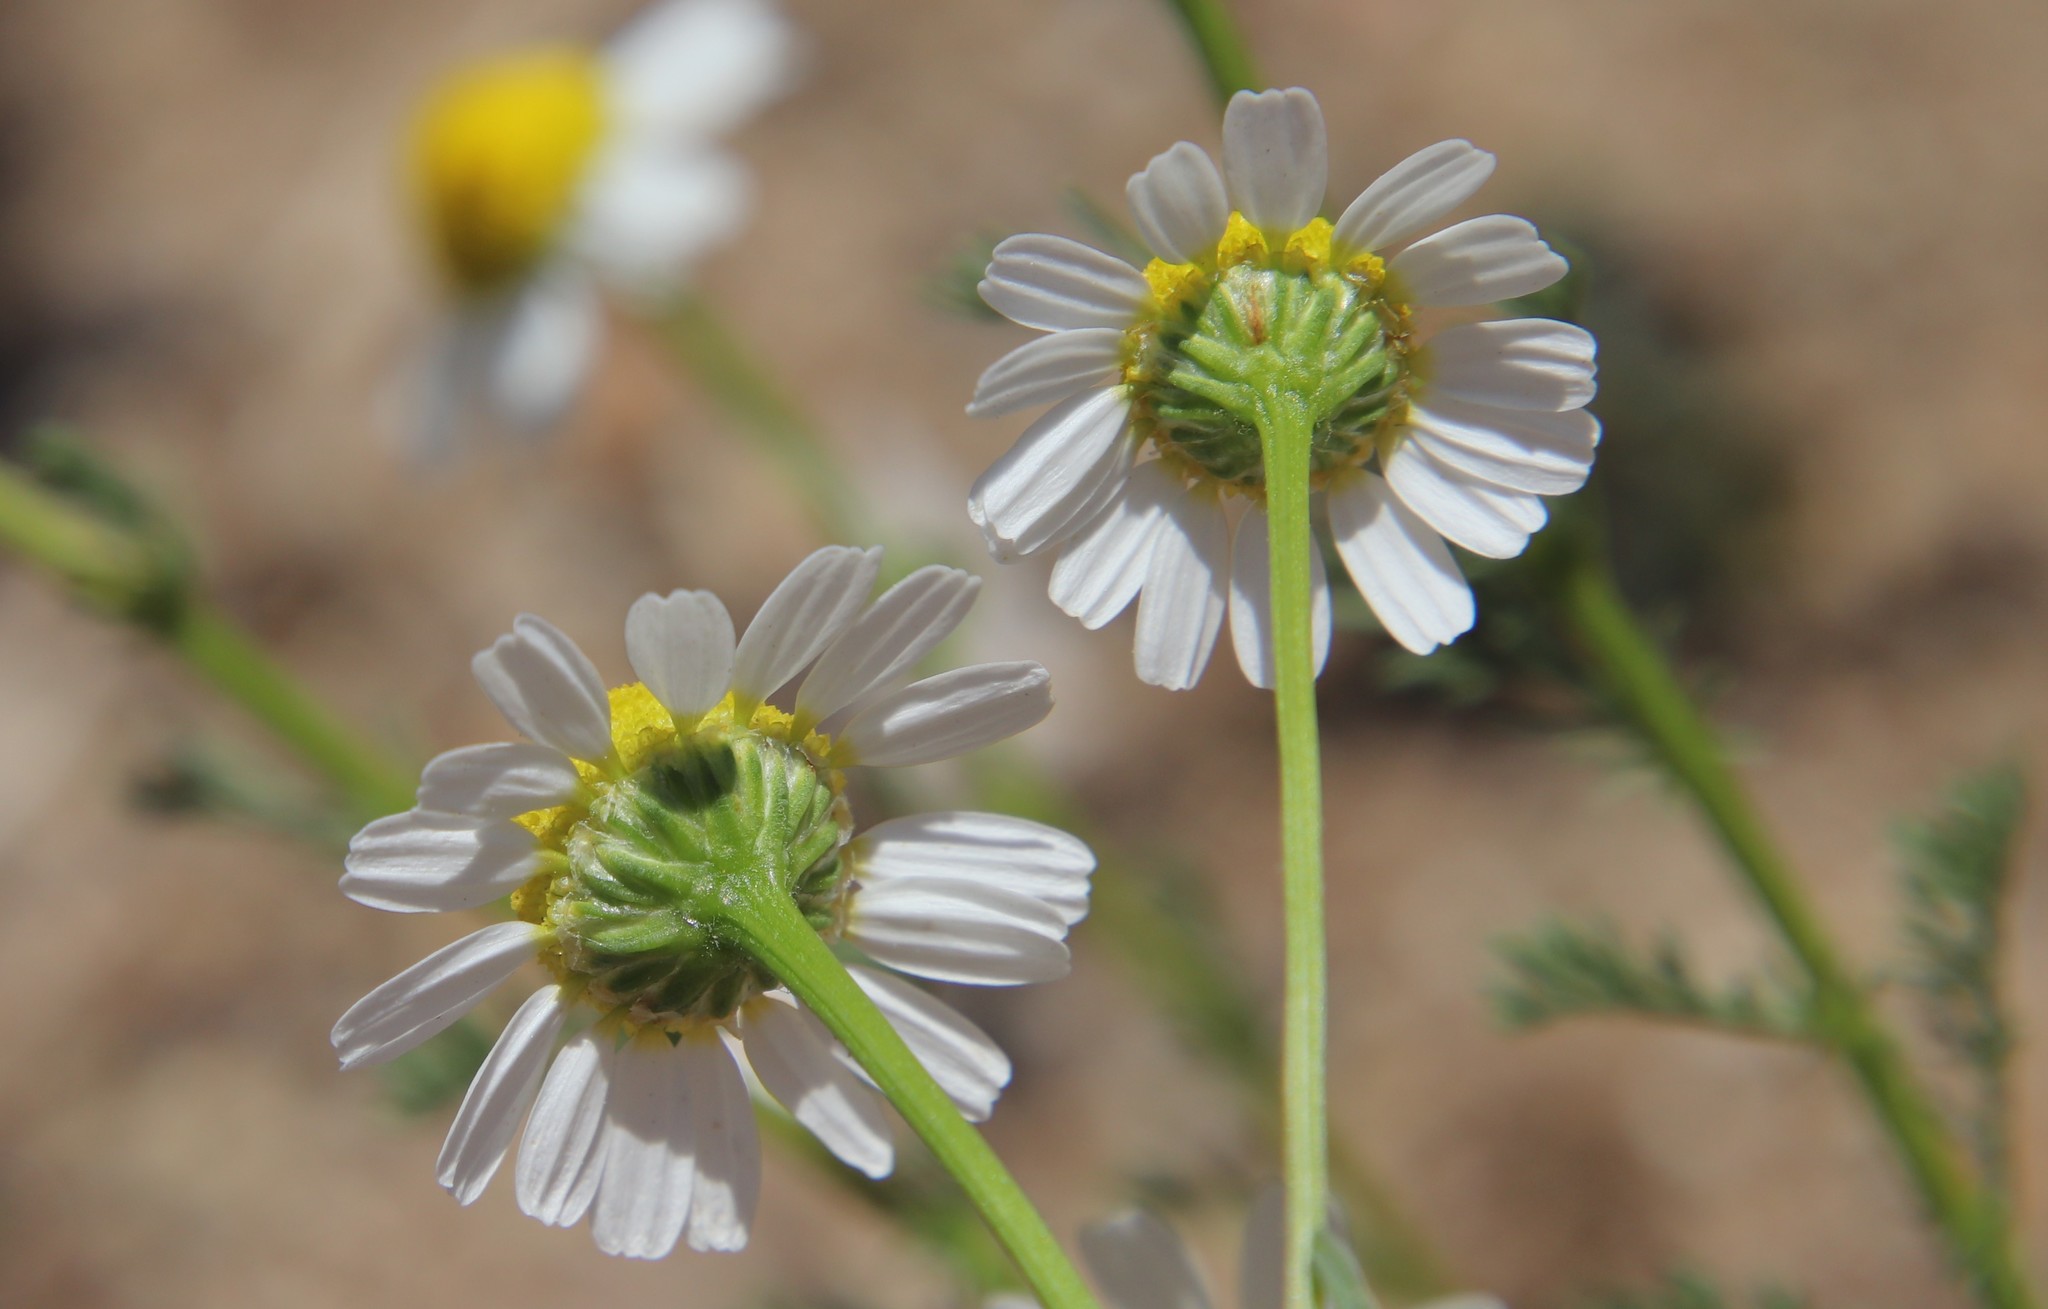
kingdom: Plantae
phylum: Tracheophyta
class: Magnoliopsida
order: Asterales
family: Asteraceae
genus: Anthemis
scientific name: Anthemis cotula
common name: Stinking chamomile
